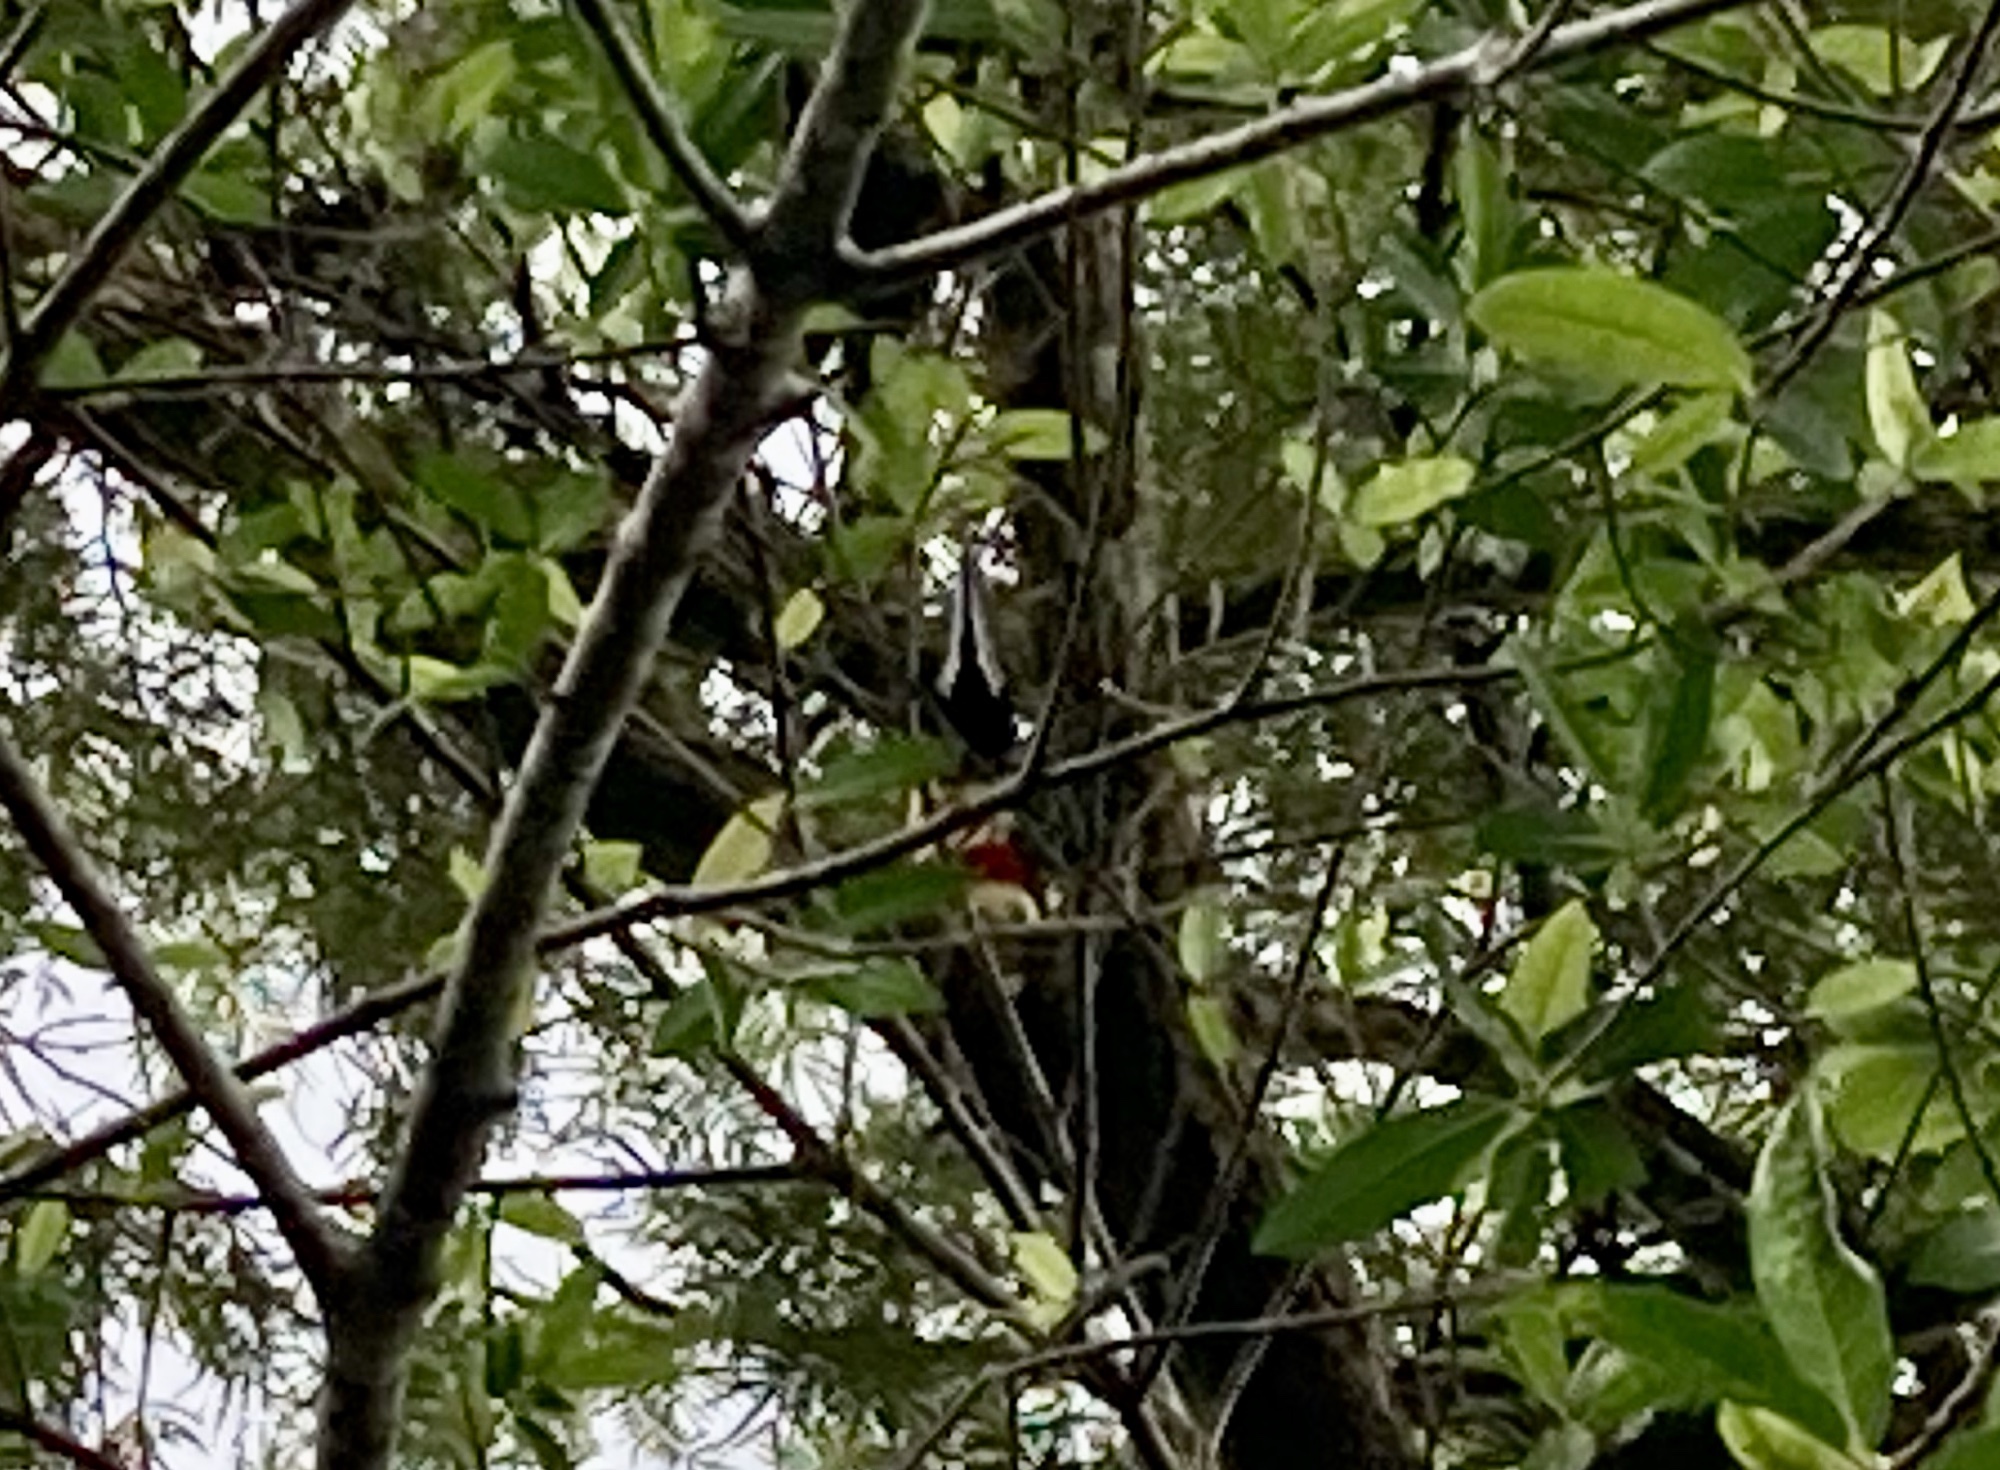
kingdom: Animalia
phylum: Chordata
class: Aves
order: Piciformes
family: Ramphastidae
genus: Pteroglossus
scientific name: Pteroglossus castanotis
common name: Chestnut-eared aracari
